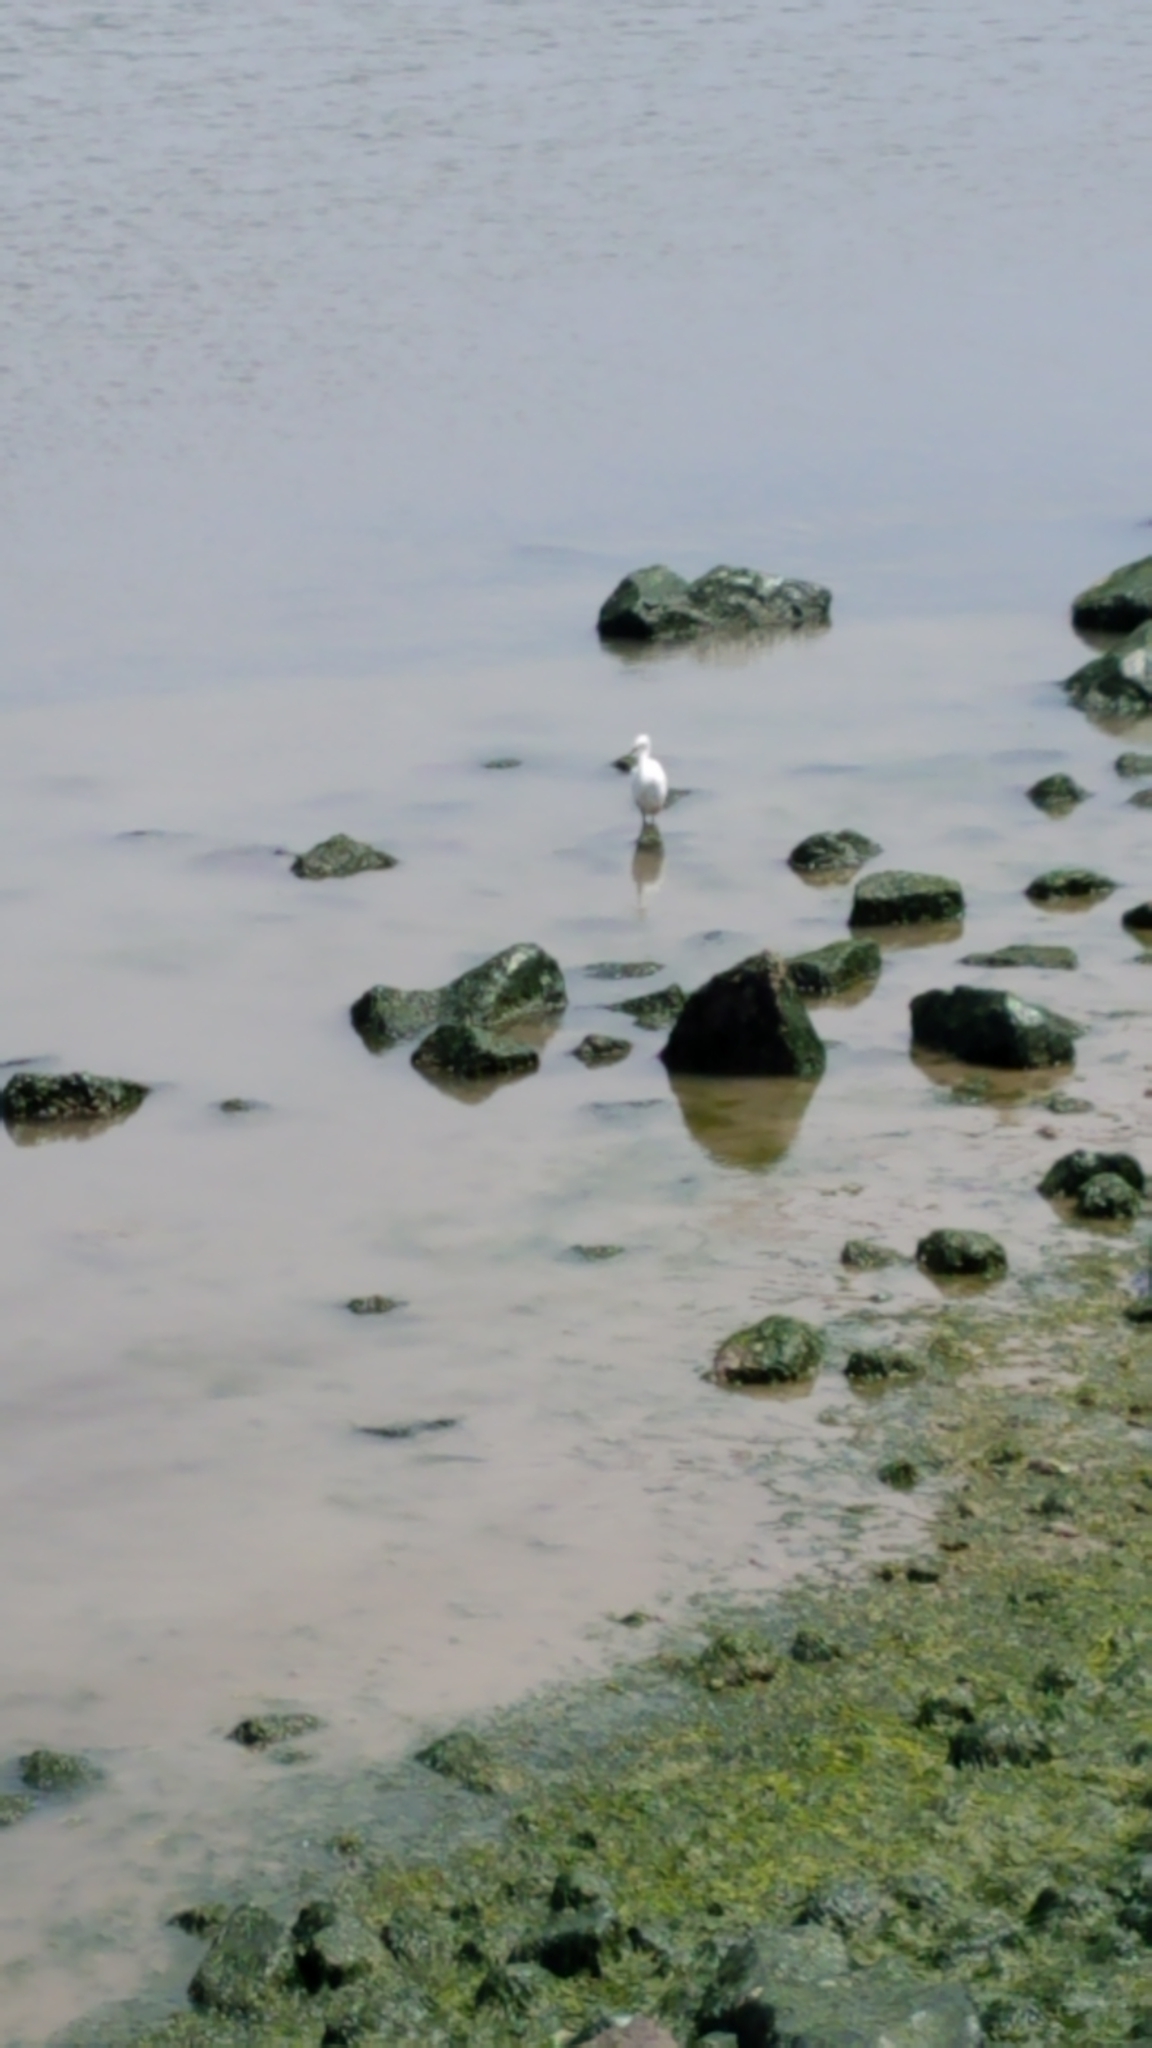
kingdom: Animalia
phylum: Chordata
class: Aves
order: Pelecaniformes
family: Ardeidae
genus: Egretta
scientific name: Egretta thula
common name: Snowy egret
